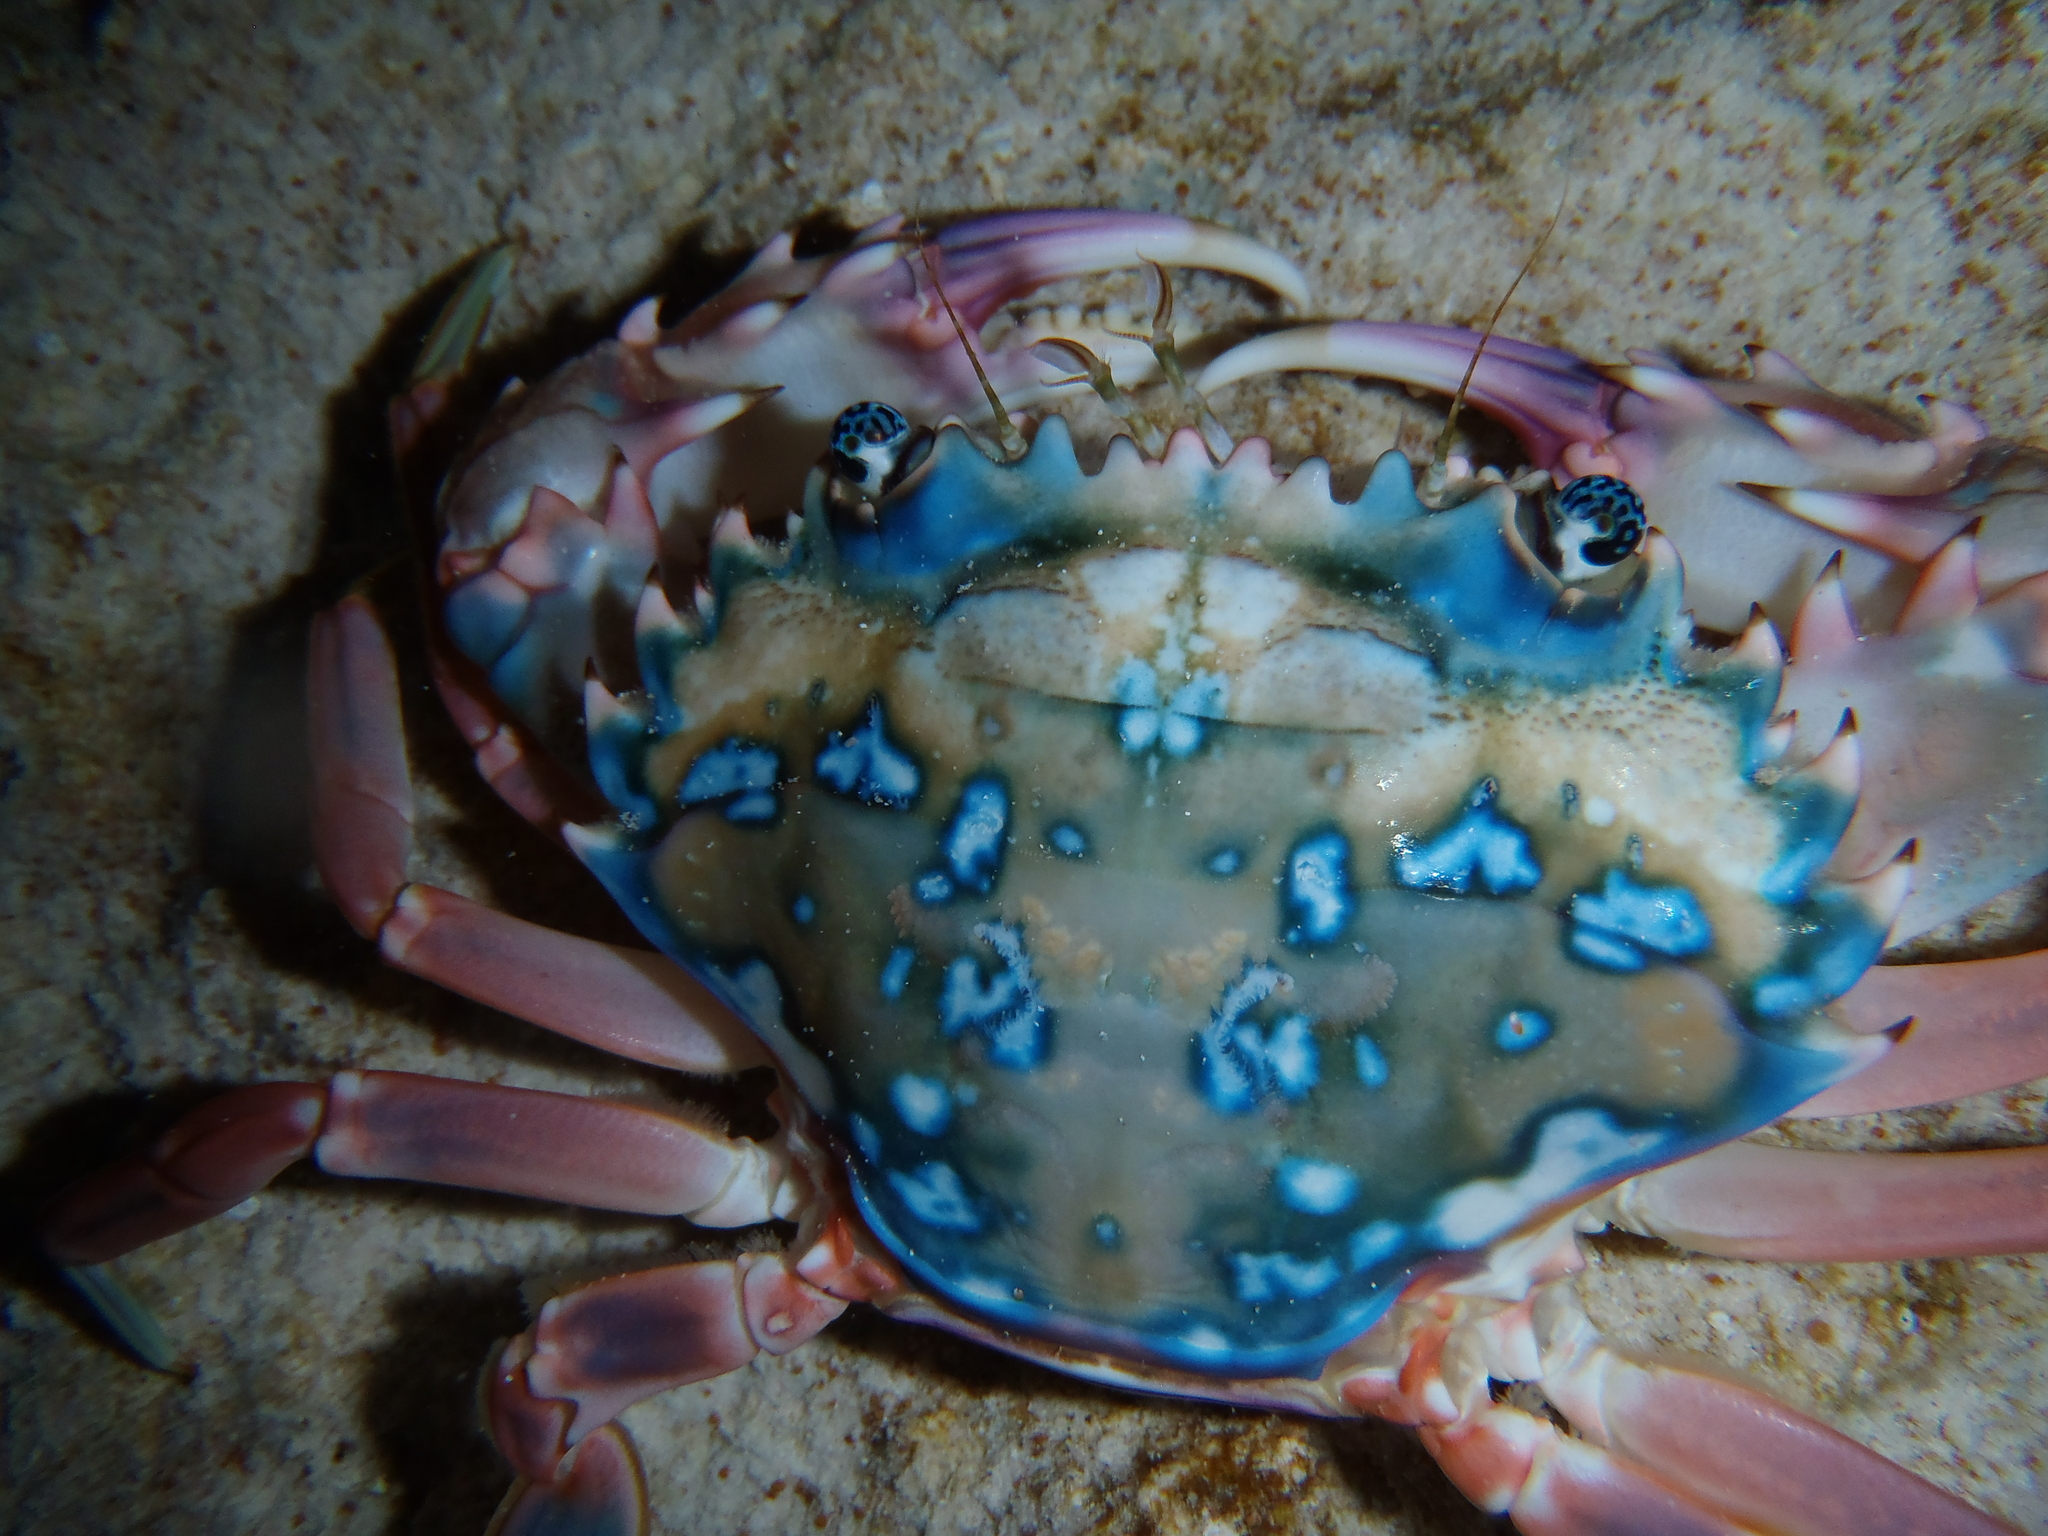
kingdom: Animalia
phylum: Arthropoda
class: Malacostraca
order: Decapoda
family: Portunidae
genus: Goniosupradens
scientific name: Goniosupradens erythrodactylus
